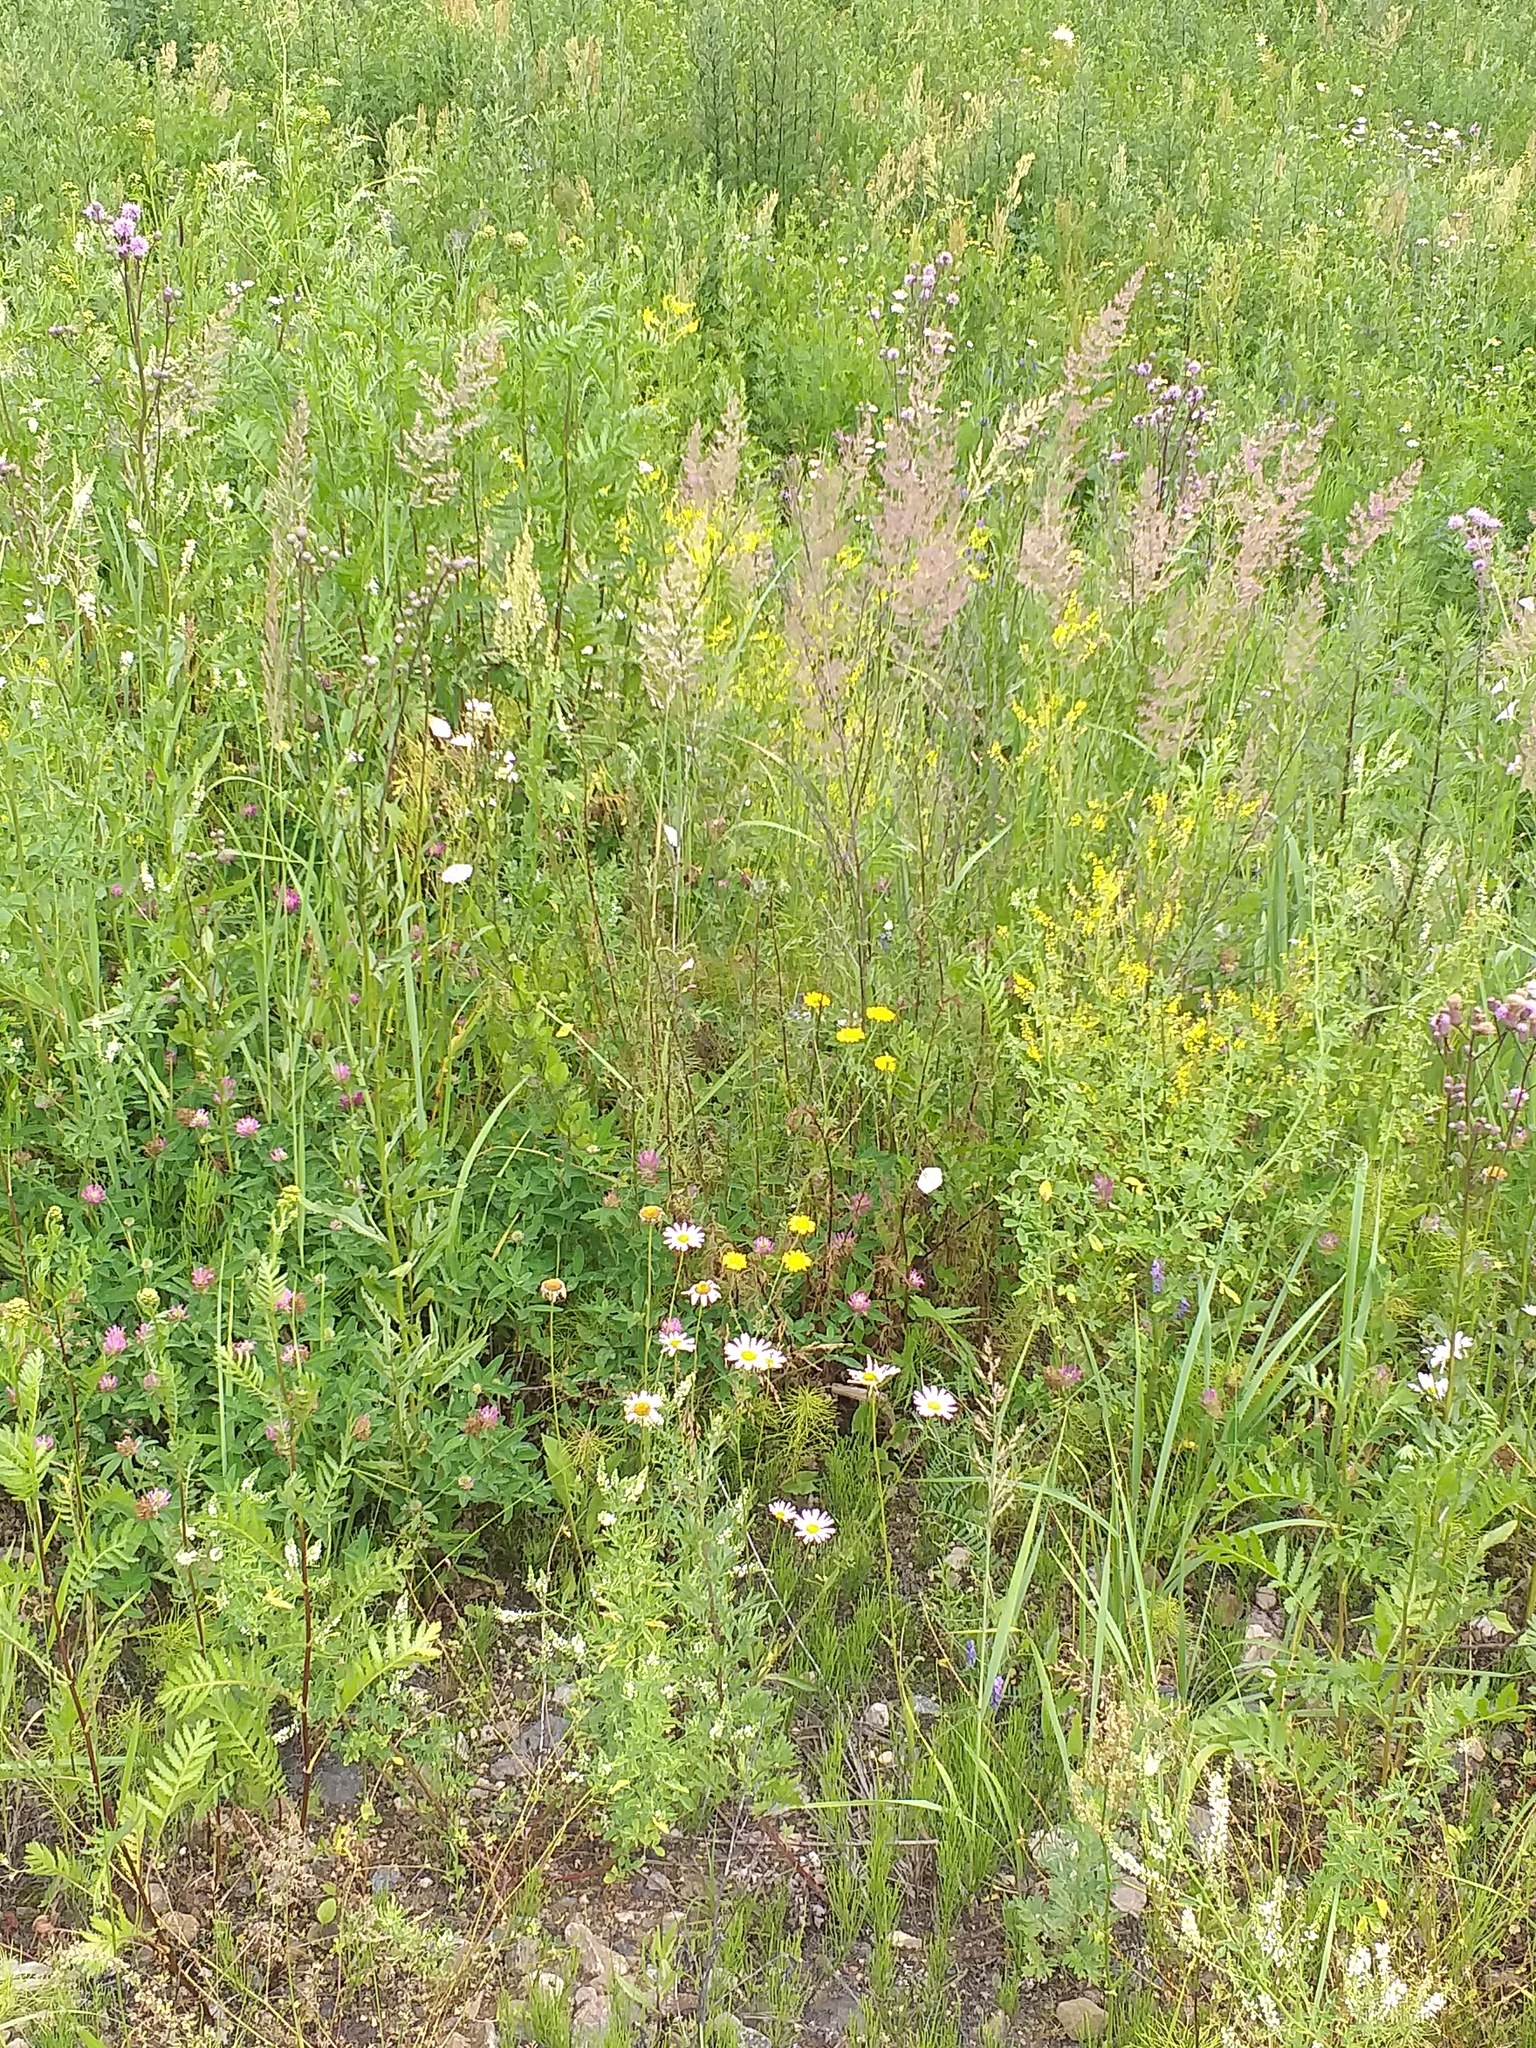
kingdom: Plantae
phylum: Tracheophyta
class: Magnoliopsida
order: Asterales
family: Asteraceae
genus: Leucanthemum
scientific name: Leucanthemum vulgare
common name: Oxeye daisy
